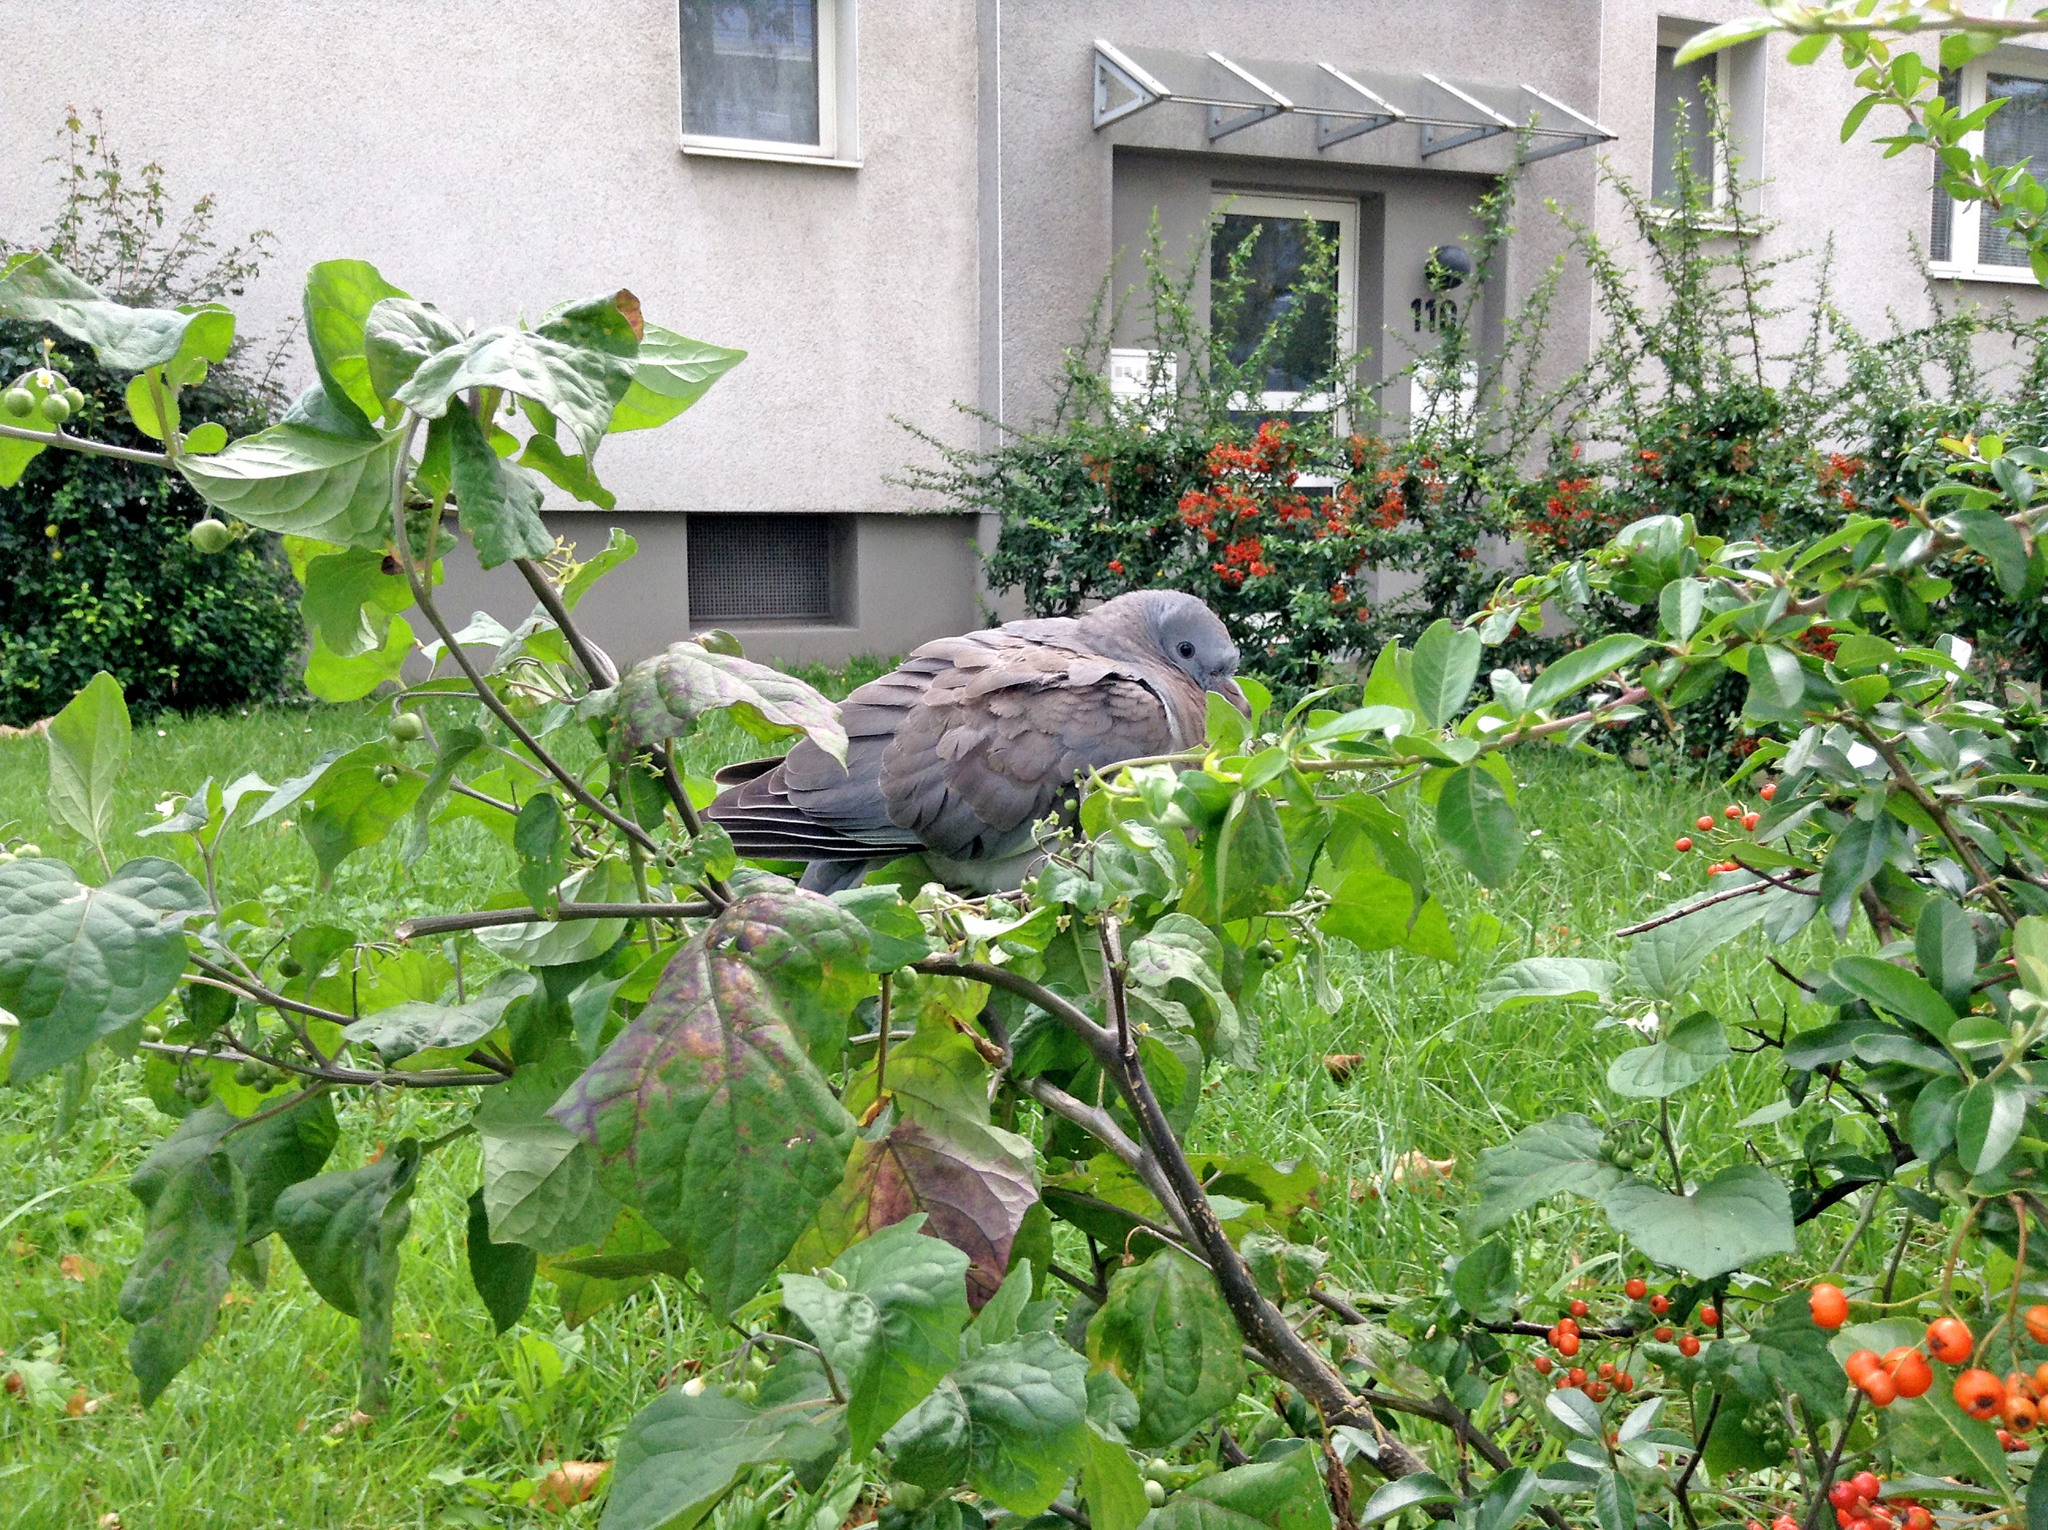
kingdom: Animalia
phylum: Chordata
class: Aves
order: Columbiformes
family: Columbidae
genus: Columba
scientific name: Columba palumbus
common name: Common wood pigeon
